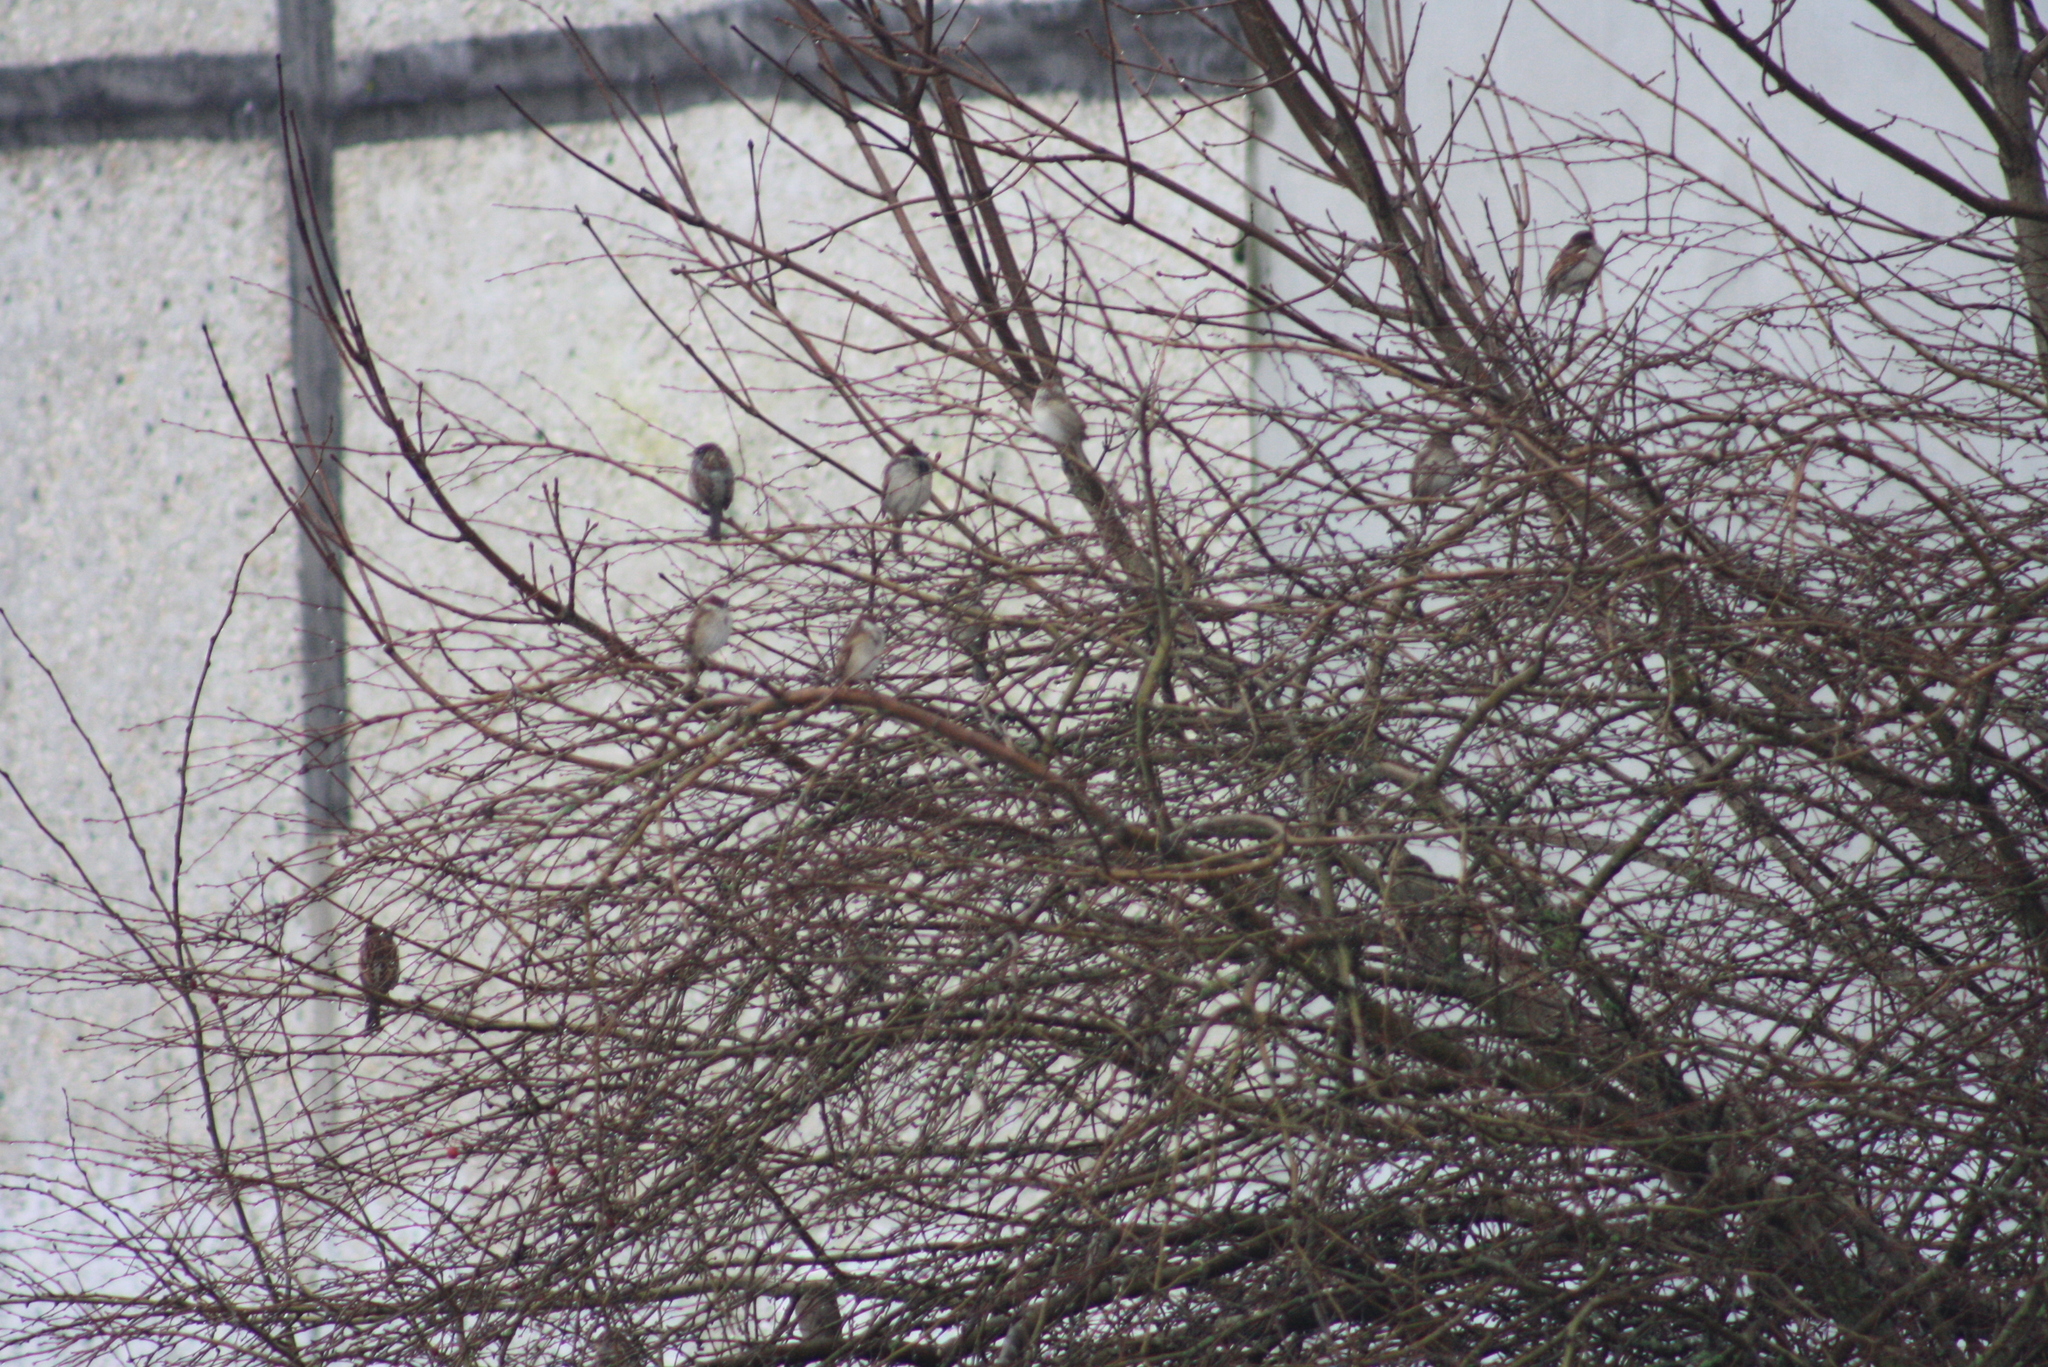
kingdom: Animalia
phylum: Chordata
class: Aves
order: Passeriformes
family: Passeridae
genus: Passer
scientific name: Passer domesticus
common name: House sparrow
